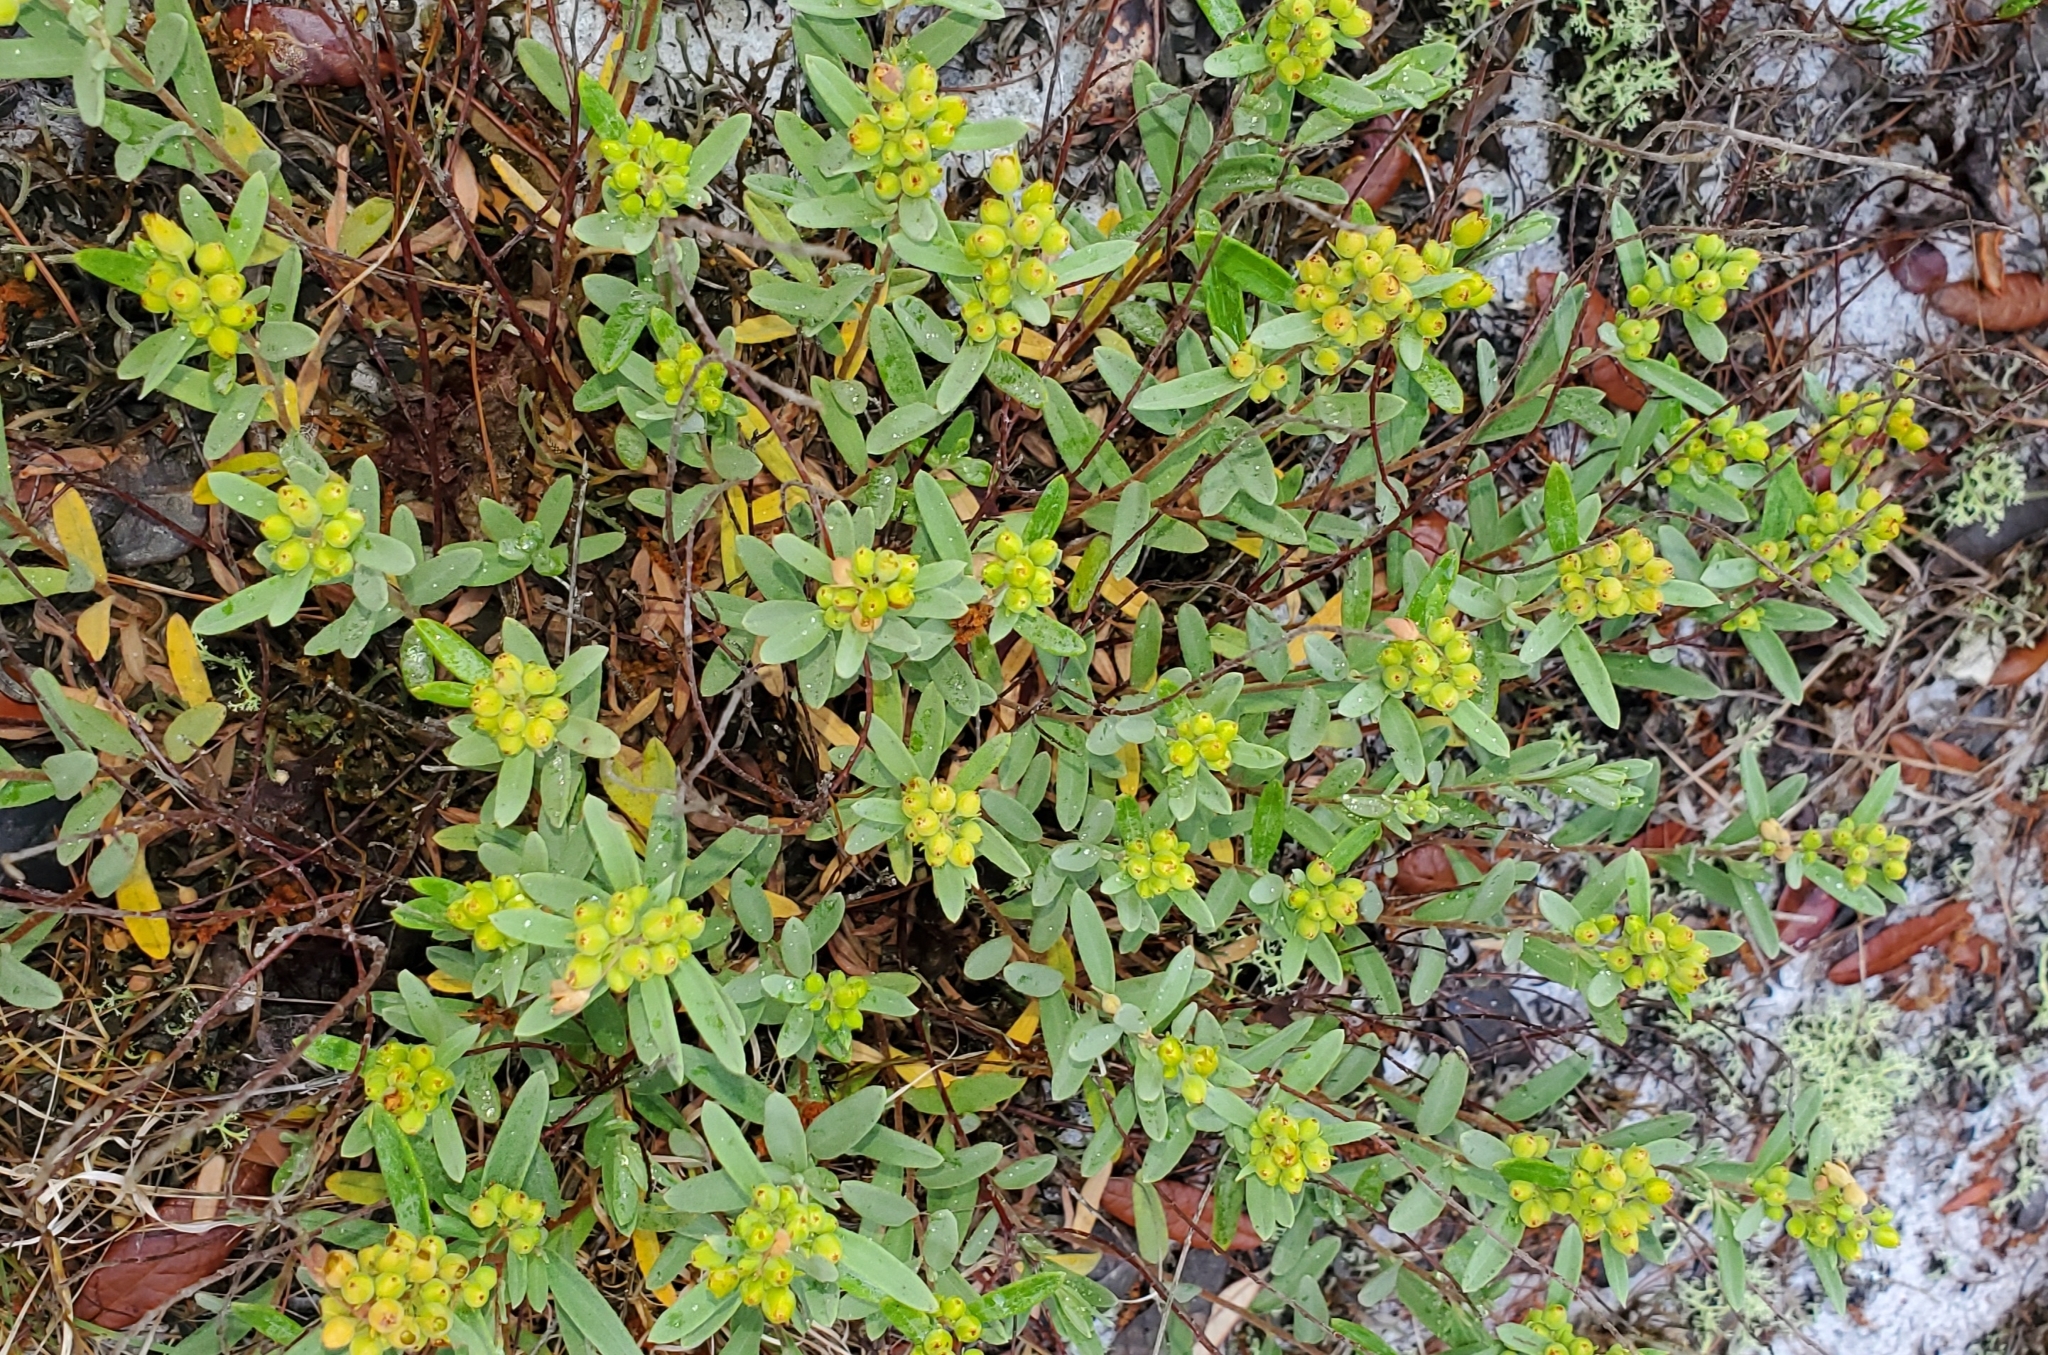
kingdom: Plantae
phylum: Tracheophyta
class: Magnoliopsida
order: Malvales
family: Cistaceae
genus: Crocanthemum
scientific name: Crocanthemum nashii
